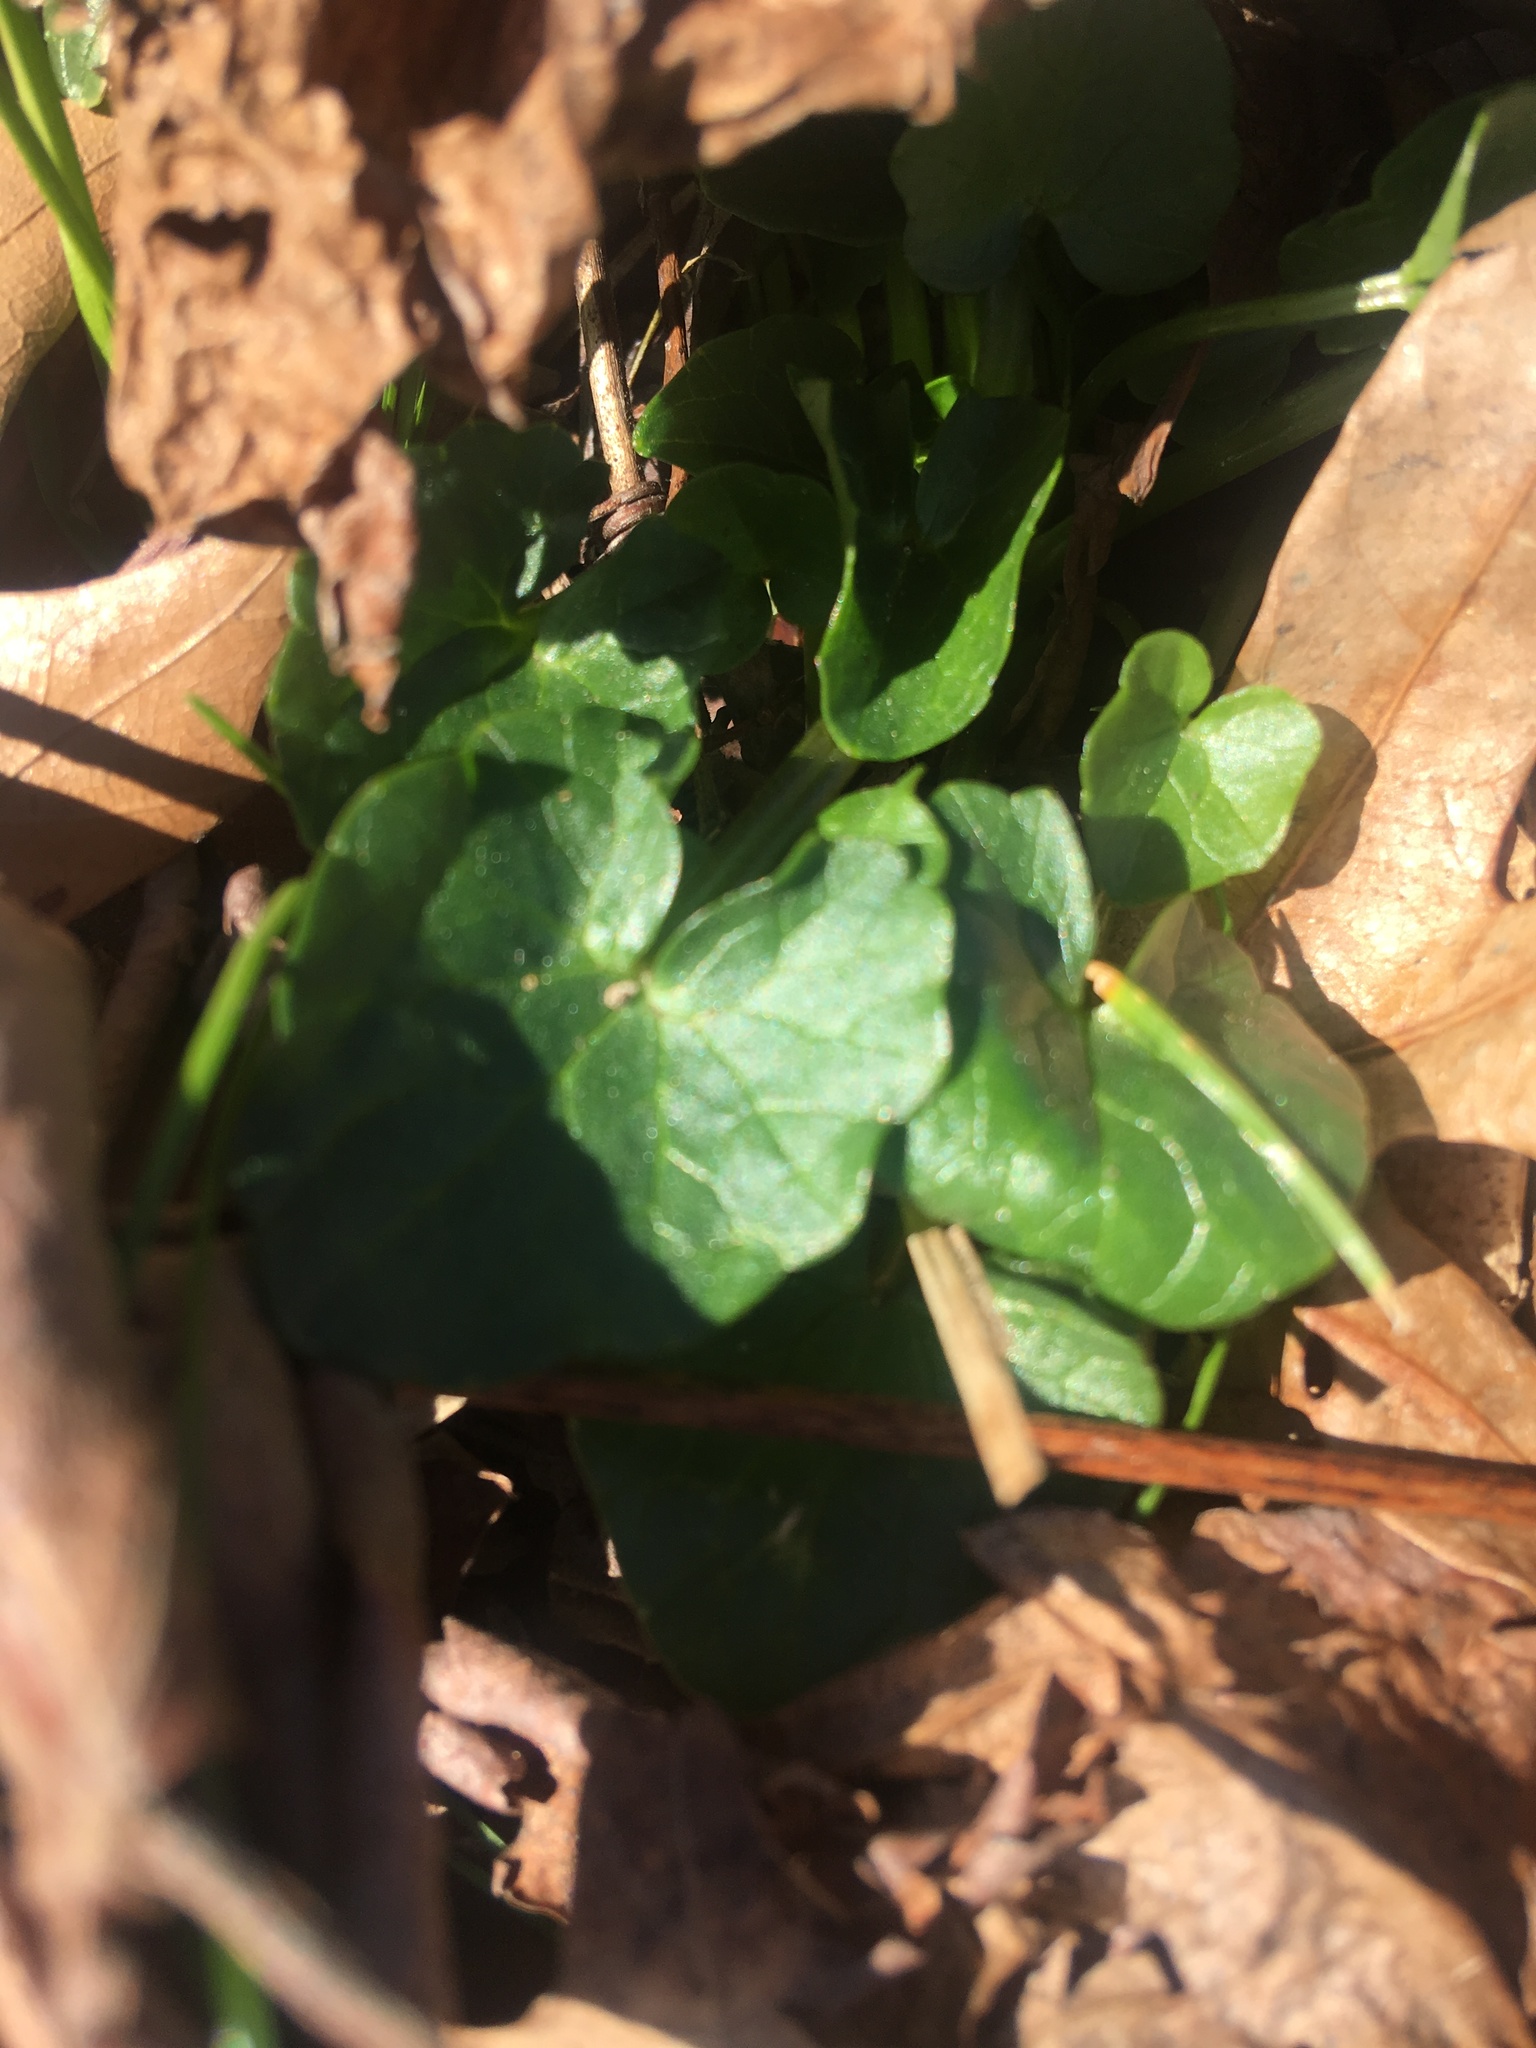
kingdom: Plantae
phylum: Tracheophyta
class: Magnoliopsida
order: Ranunculales
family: Ranunculaceae
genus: Ficaria
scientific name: Ficaria verna
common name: Lesser celandine
